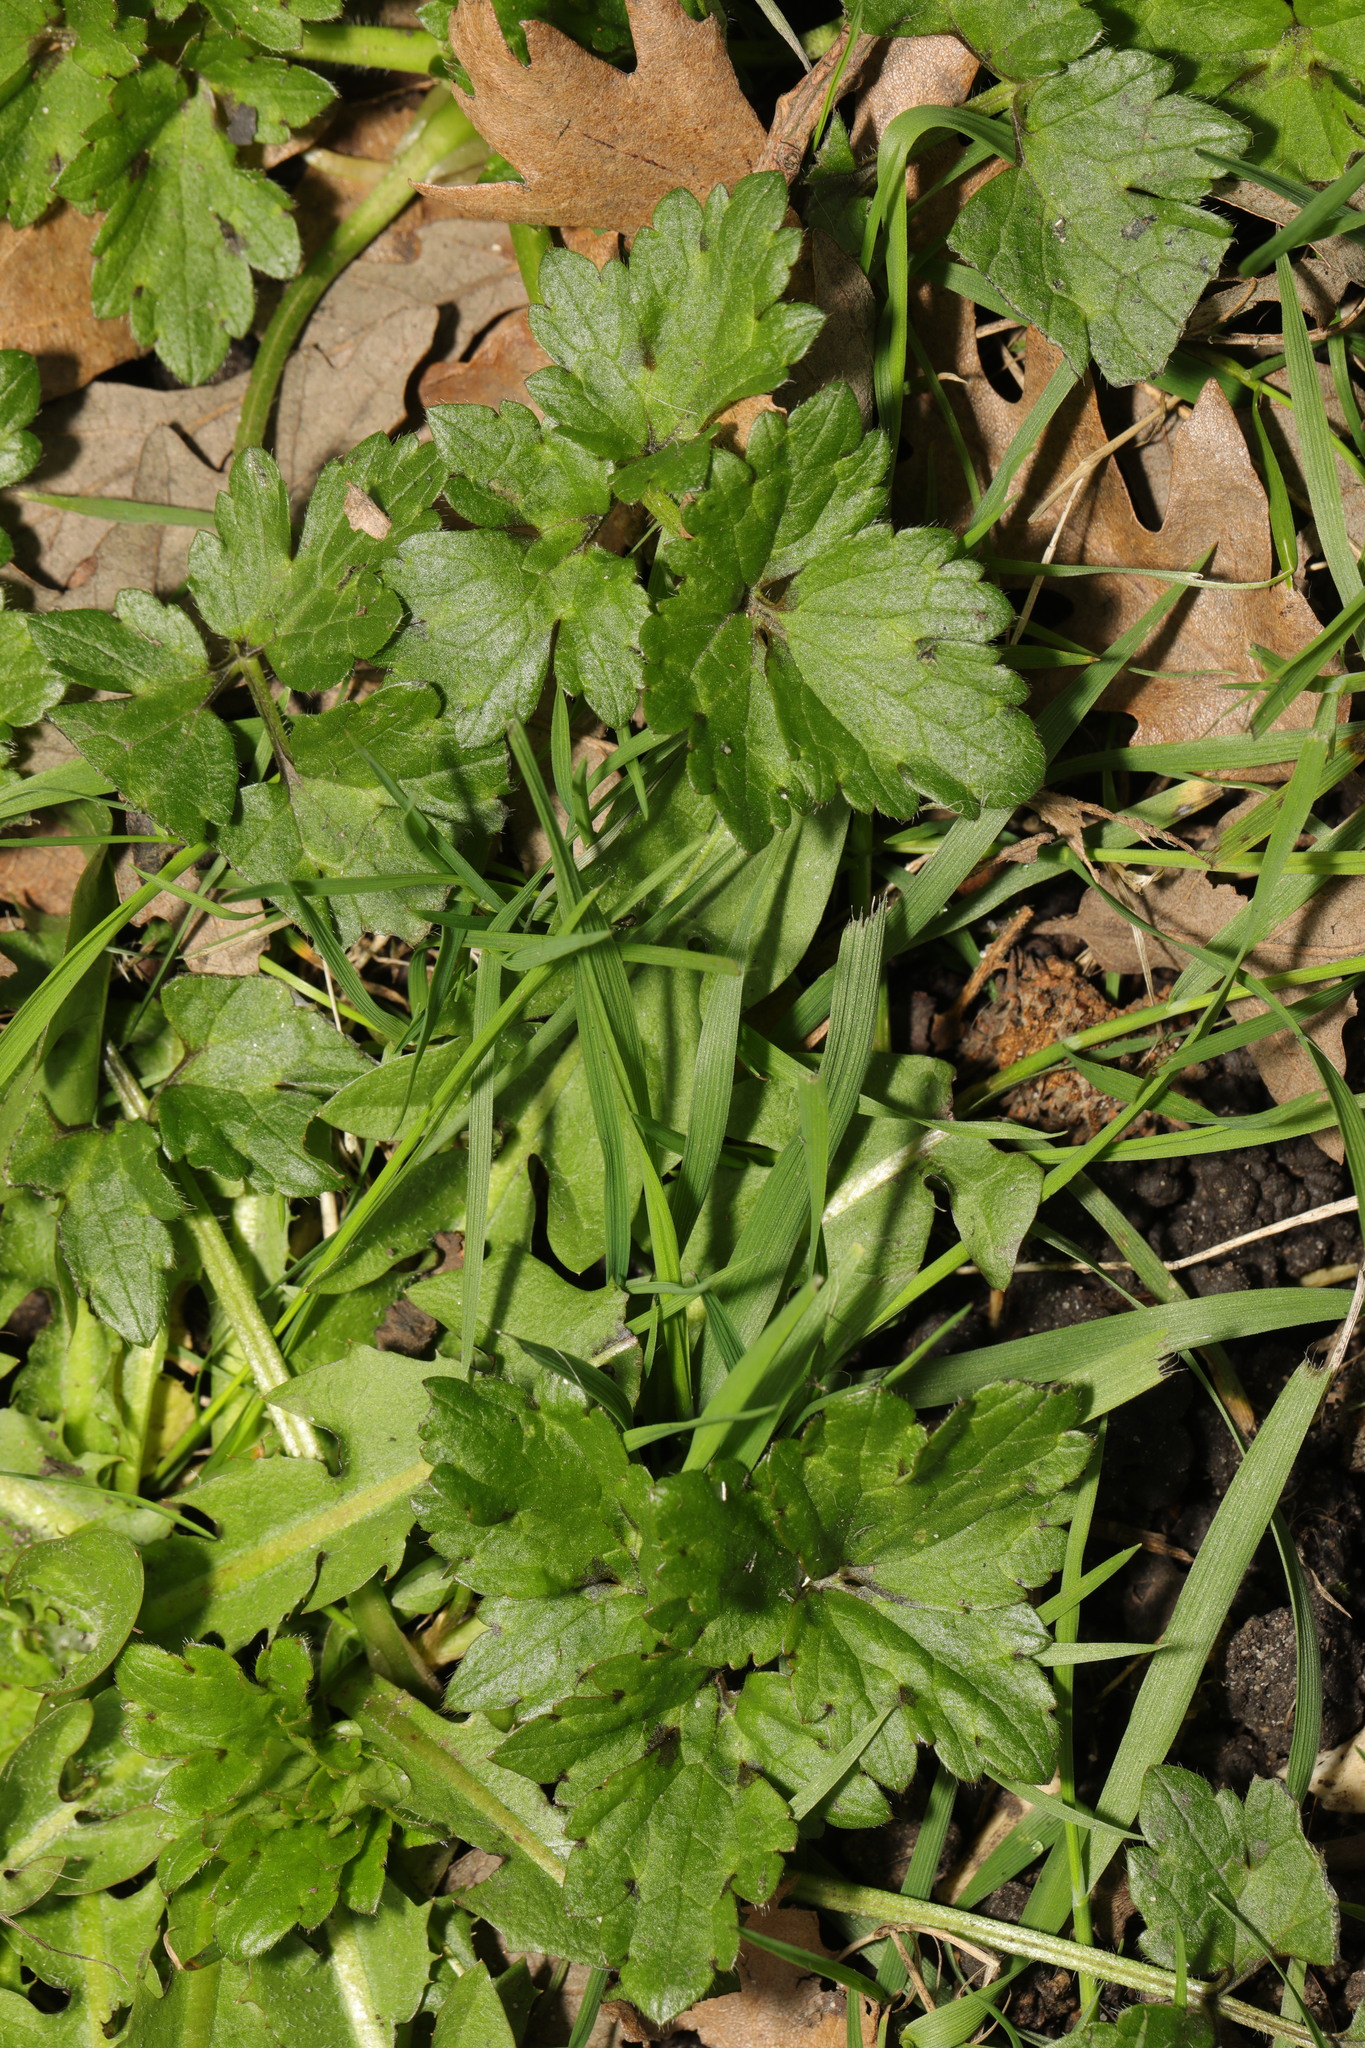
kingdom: Plantae
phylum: Tracheophyta
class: Magnoliopsida
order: Ranunculales
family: Ranunculaceae
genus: Ranunculus
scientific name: Ranunculus repens
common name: Creeping buttercup
